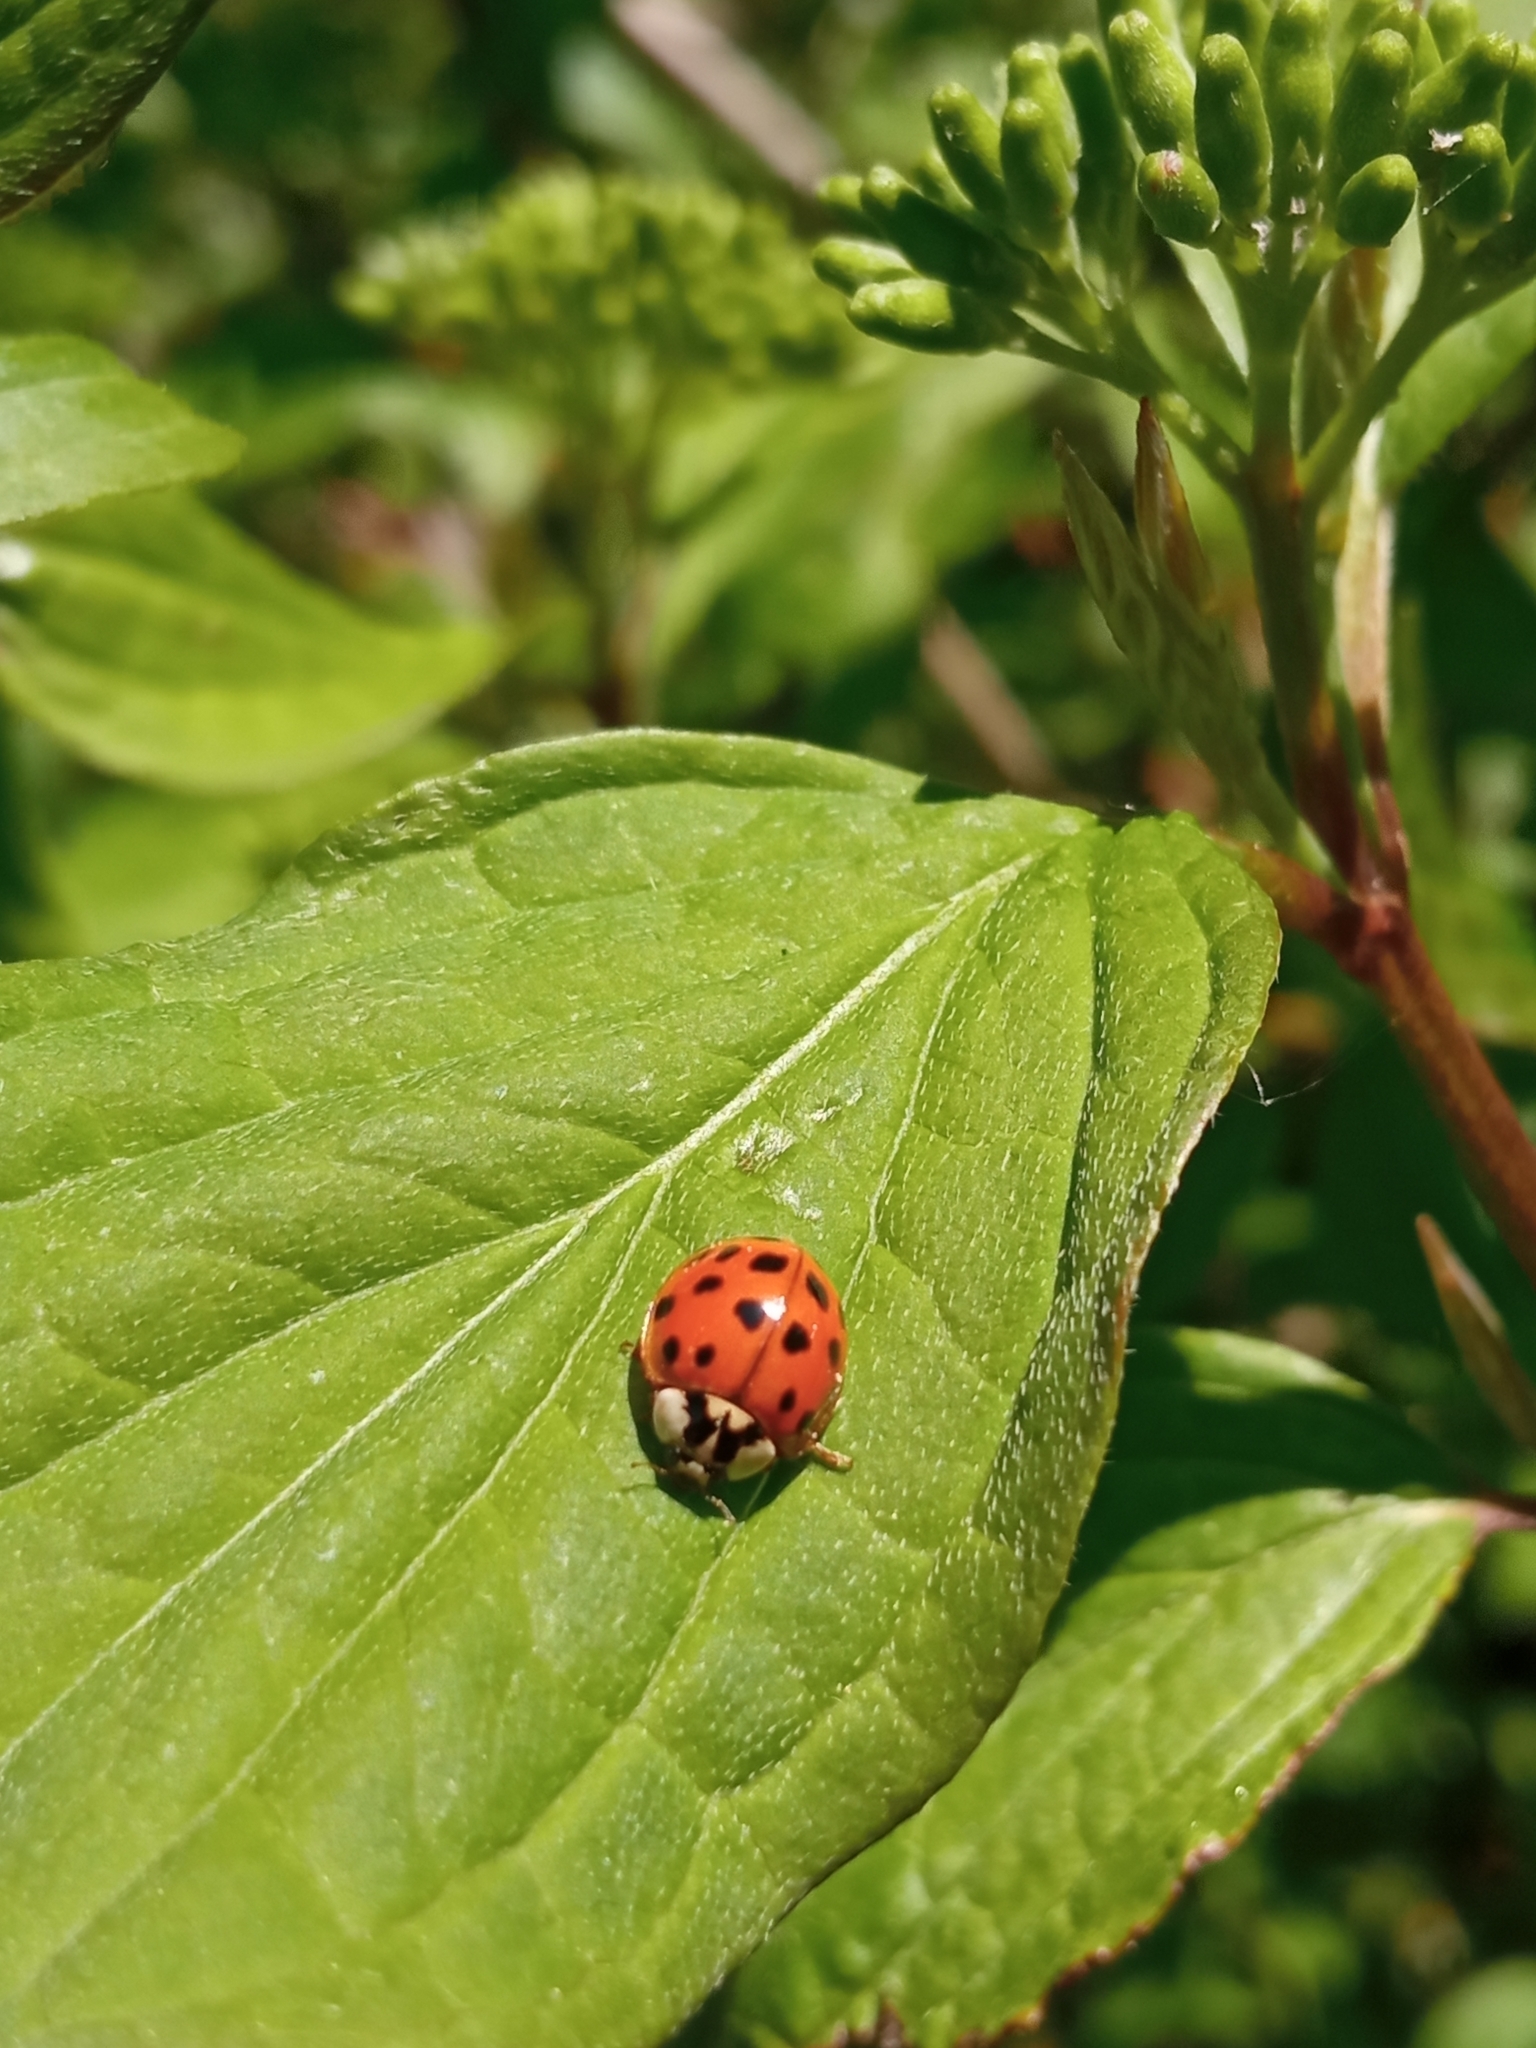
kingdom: Animalia
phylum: Arthropoda
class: Insecta
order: Coleoptera
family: Coccinellidae
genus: Harmonia
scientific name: Harmonia axyridis
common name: Harlequin ladybird
